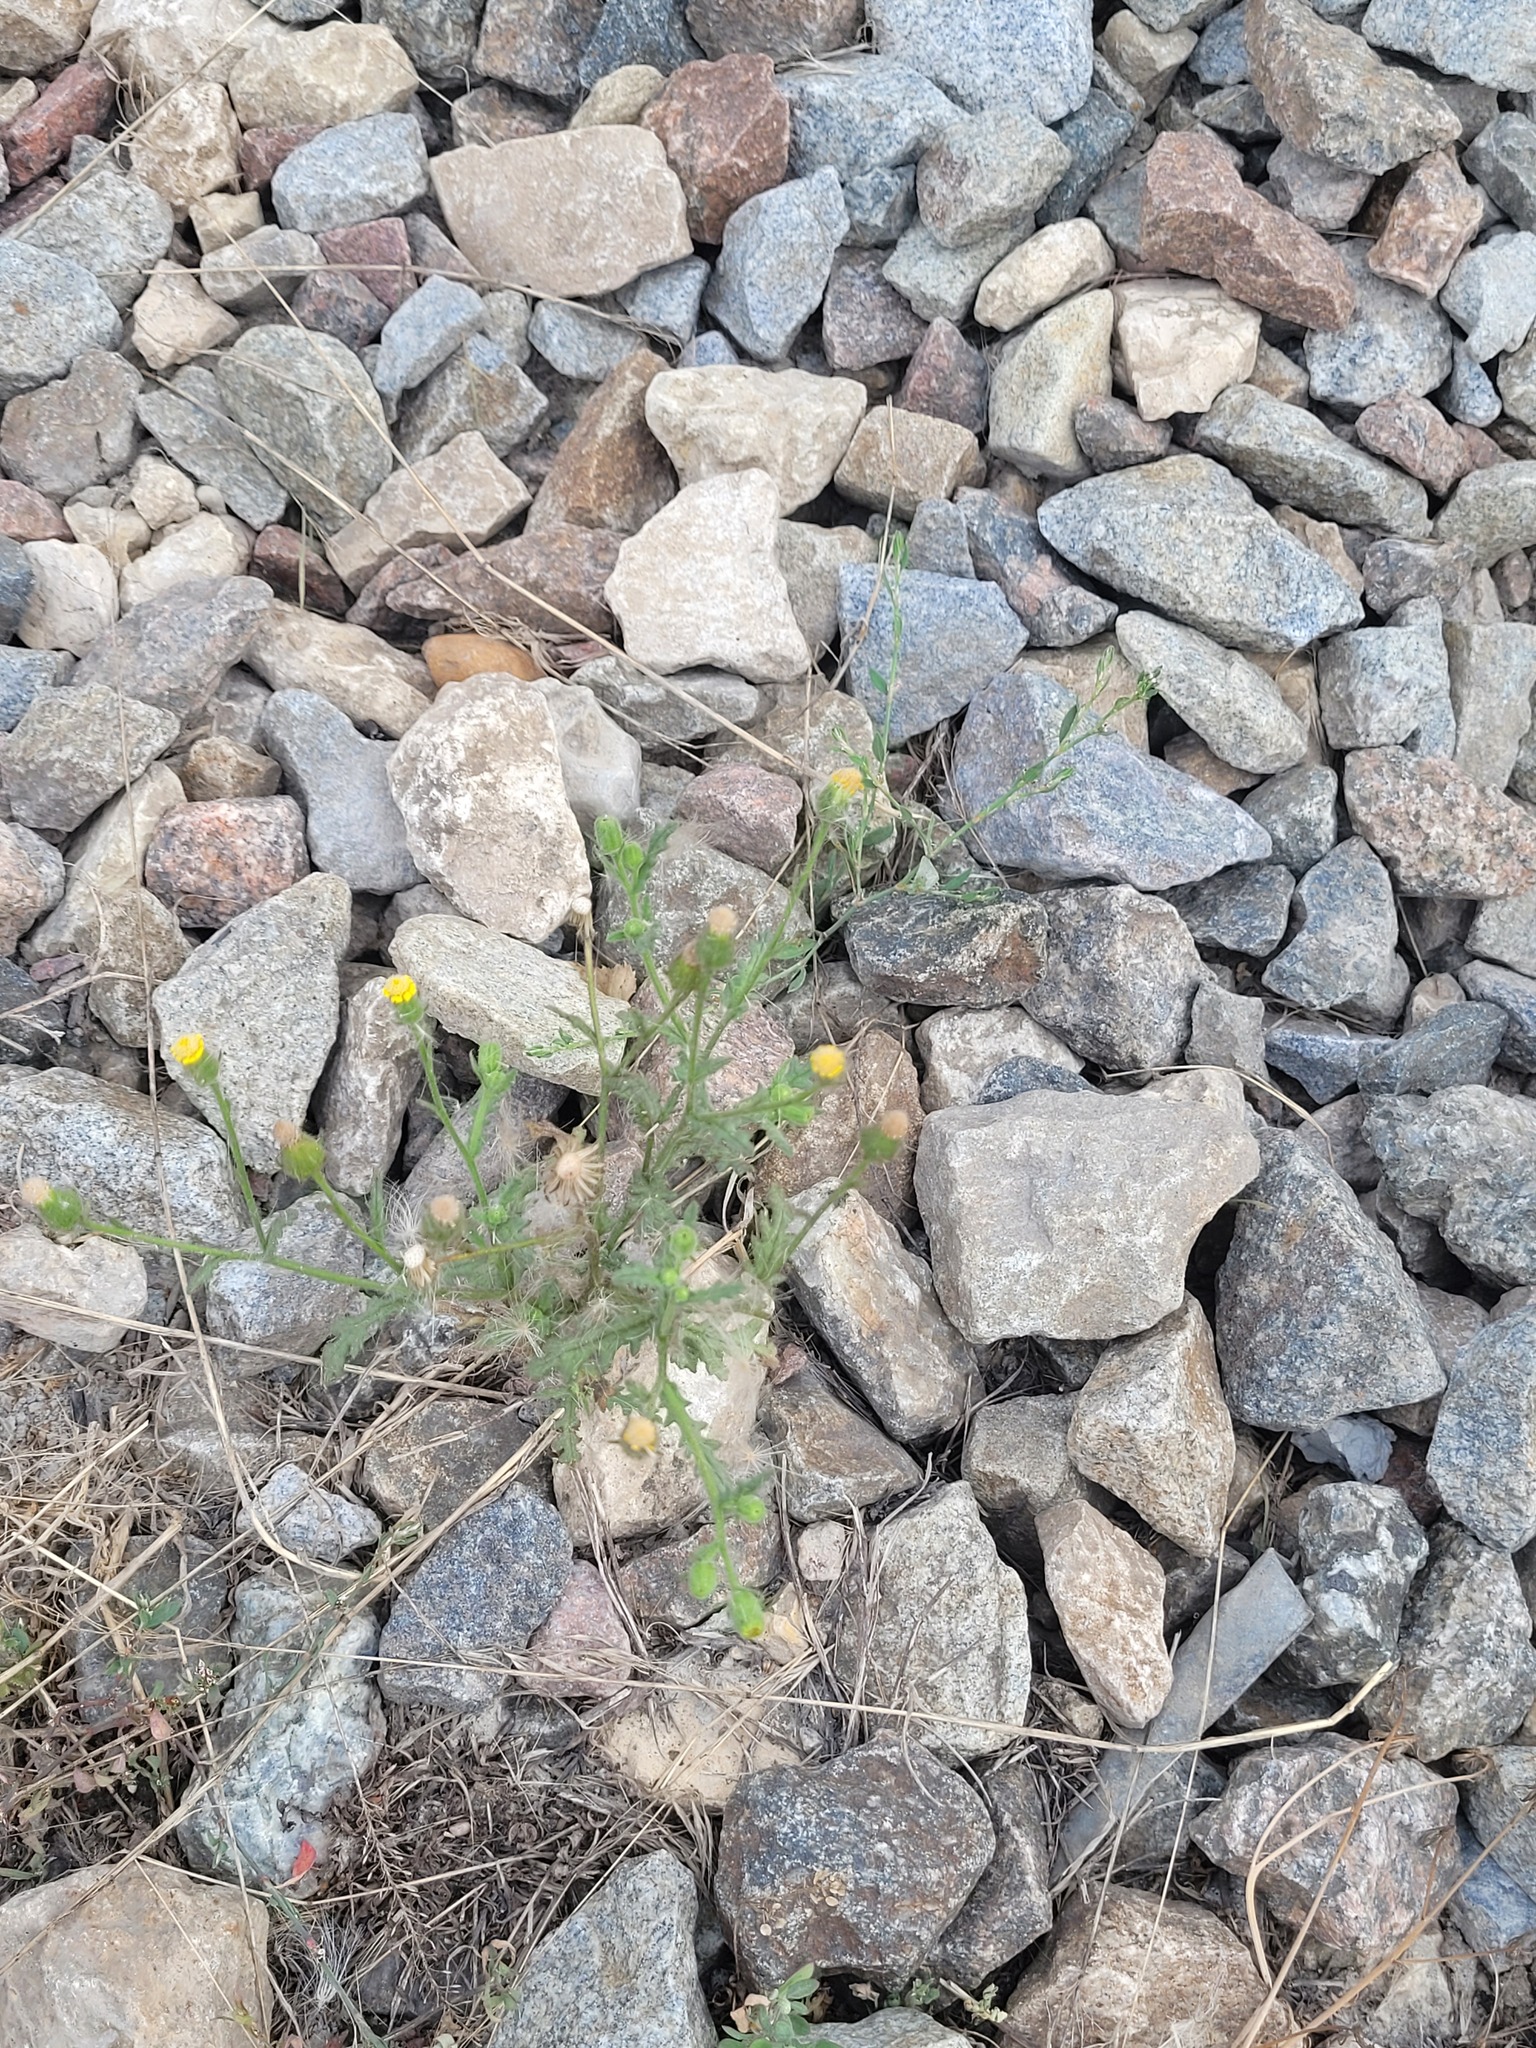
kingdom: Plantae
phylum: Tracheophyta
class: Magnoliopsida
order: Asterales
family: Asteraceae
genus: Senecio
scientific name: Senecio viscosus
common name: Sticky groundsel
